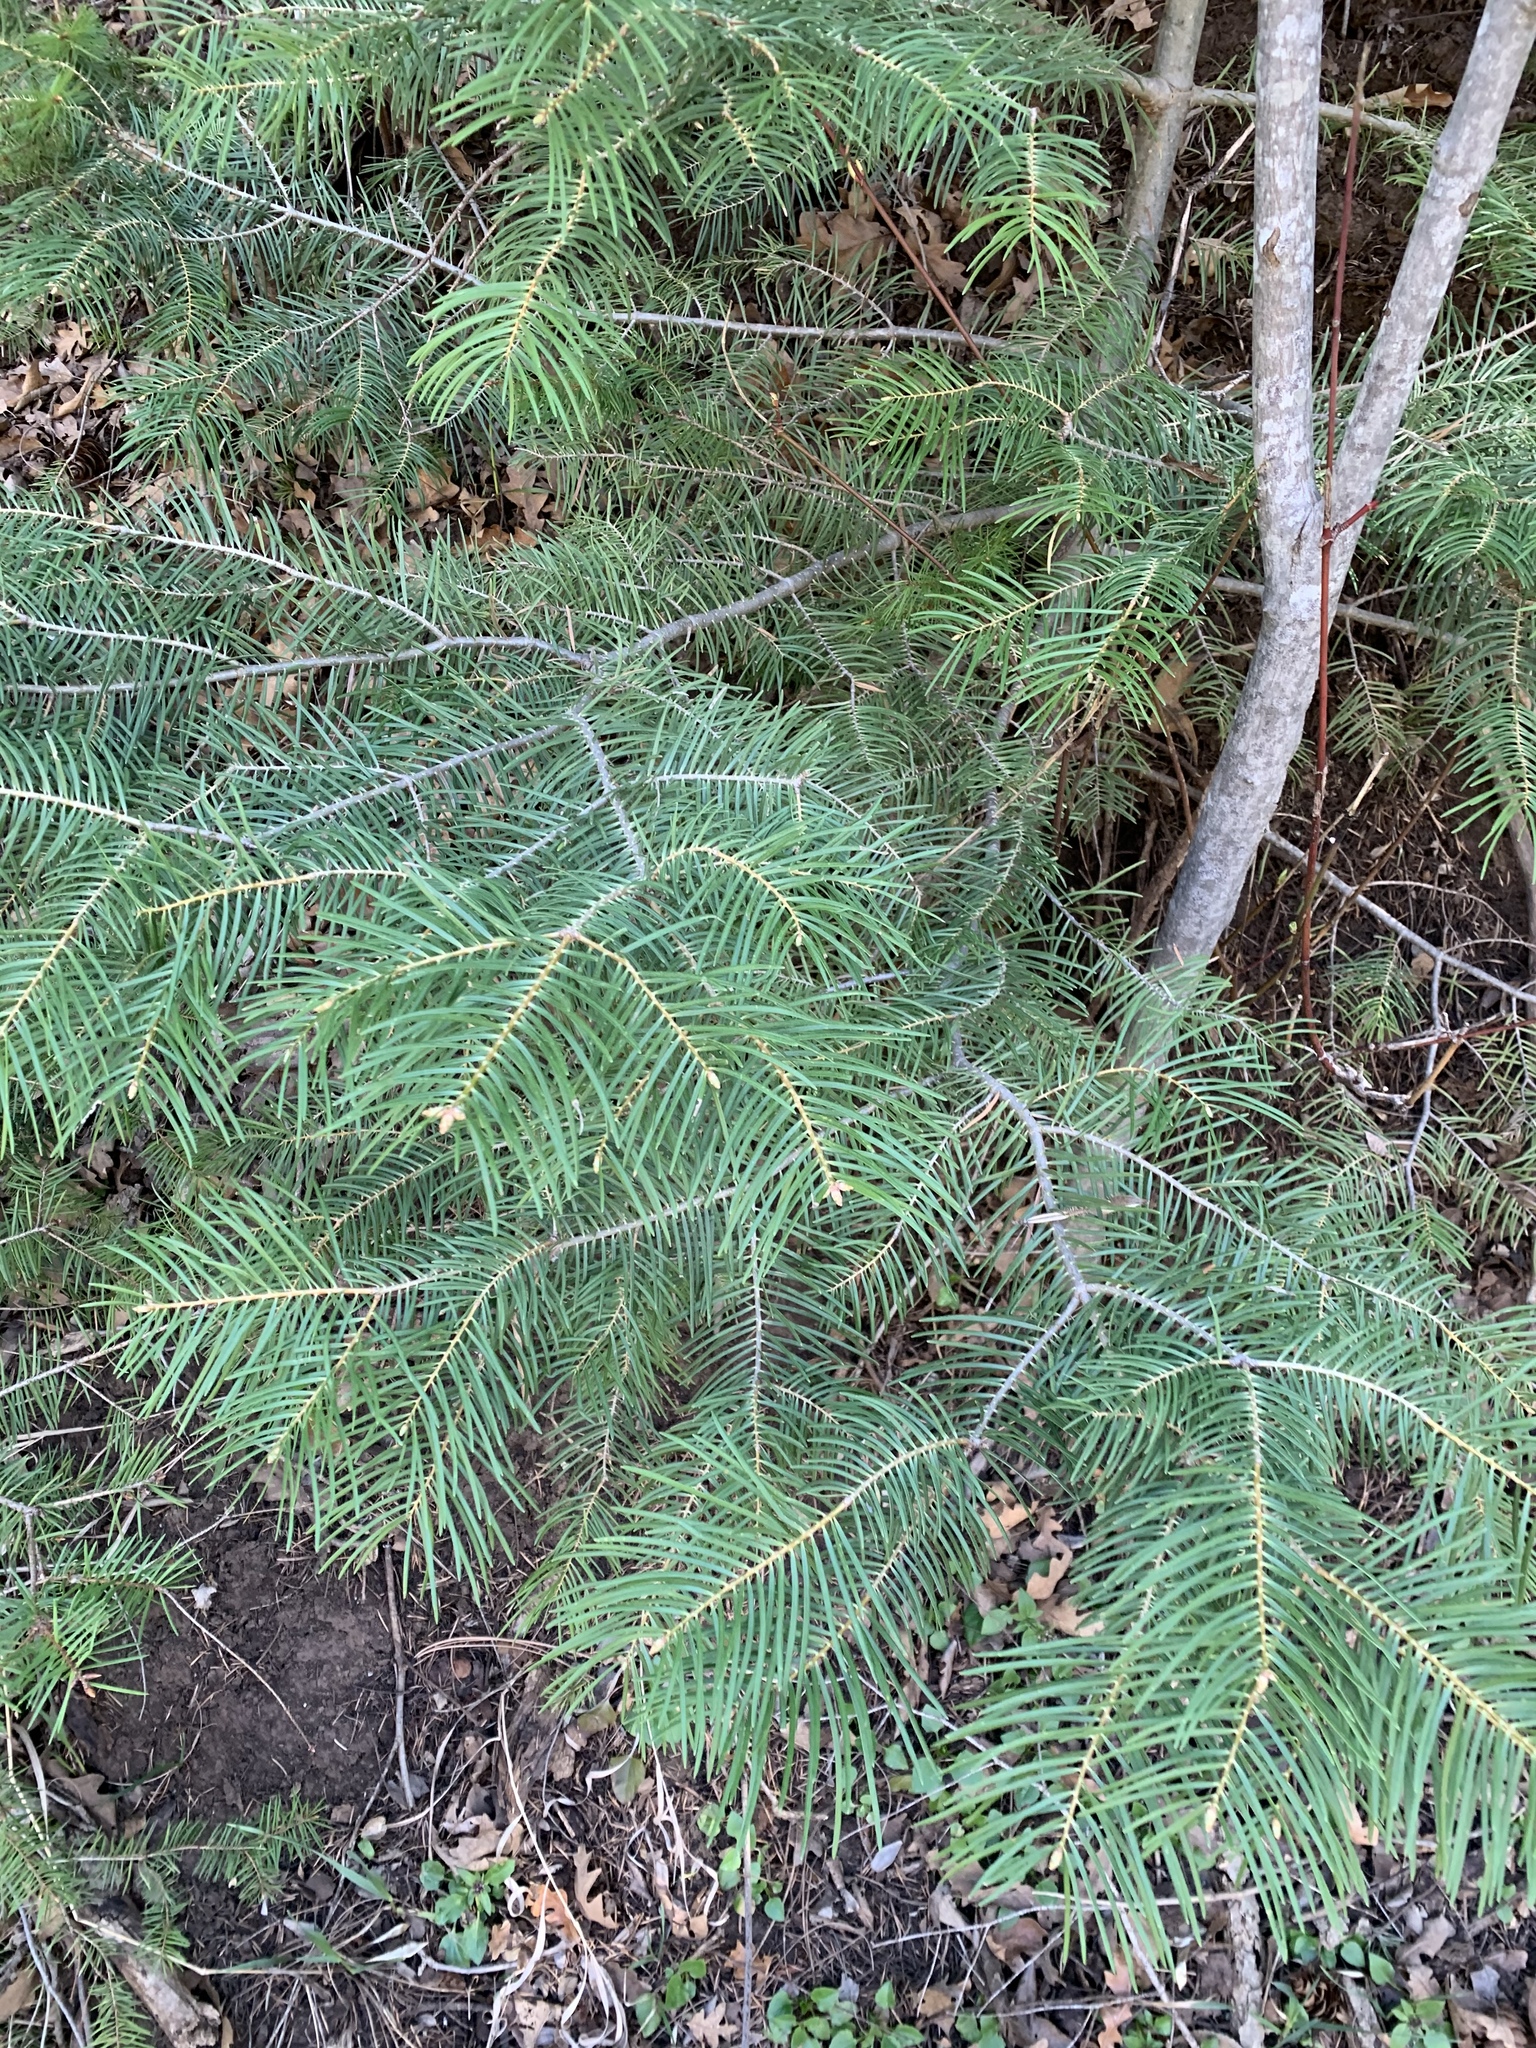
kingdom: Plantae
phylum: Tracheophyta
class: Pinopsida
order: Pinales
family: Pinaceae
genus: Abies
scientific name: Abies concolor
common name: Colorado fir
